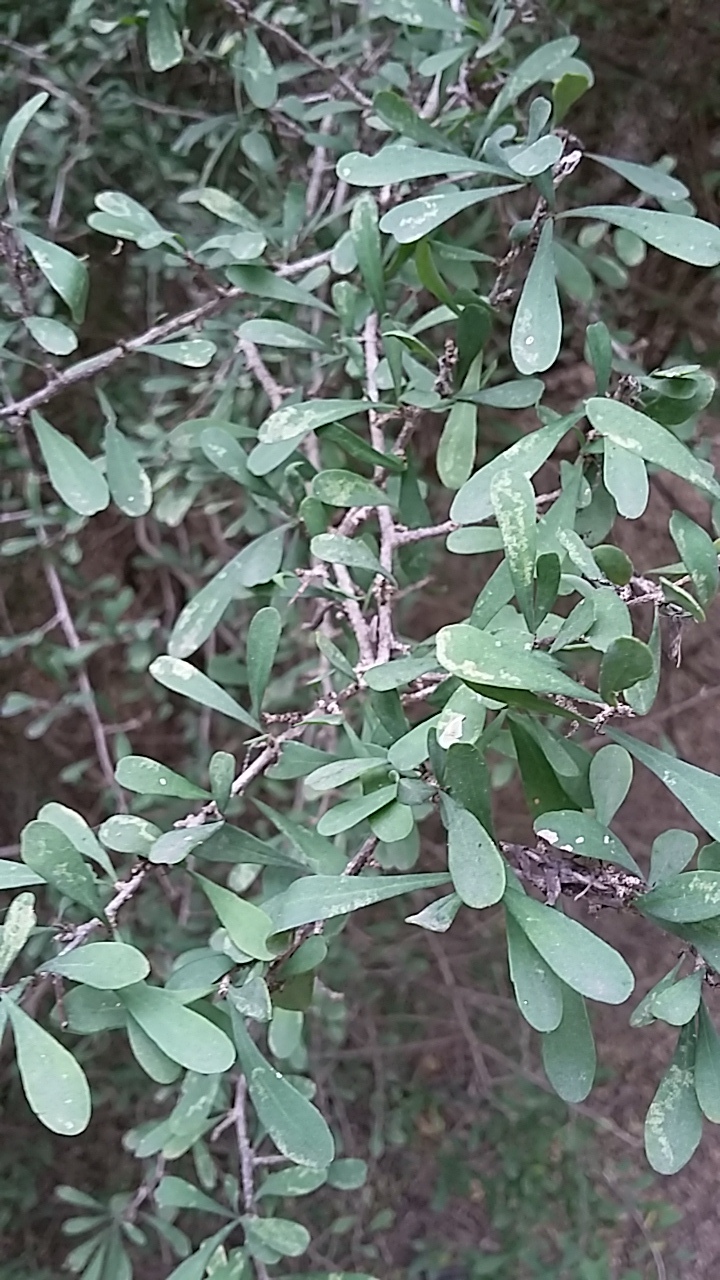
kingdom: Plantae
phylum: Tracheophyta
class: Magnoliopsida
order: Caryophyllales
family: Achatocarpaceae
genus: Phaulothamnus
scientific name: Phaulothamnus spinescens
